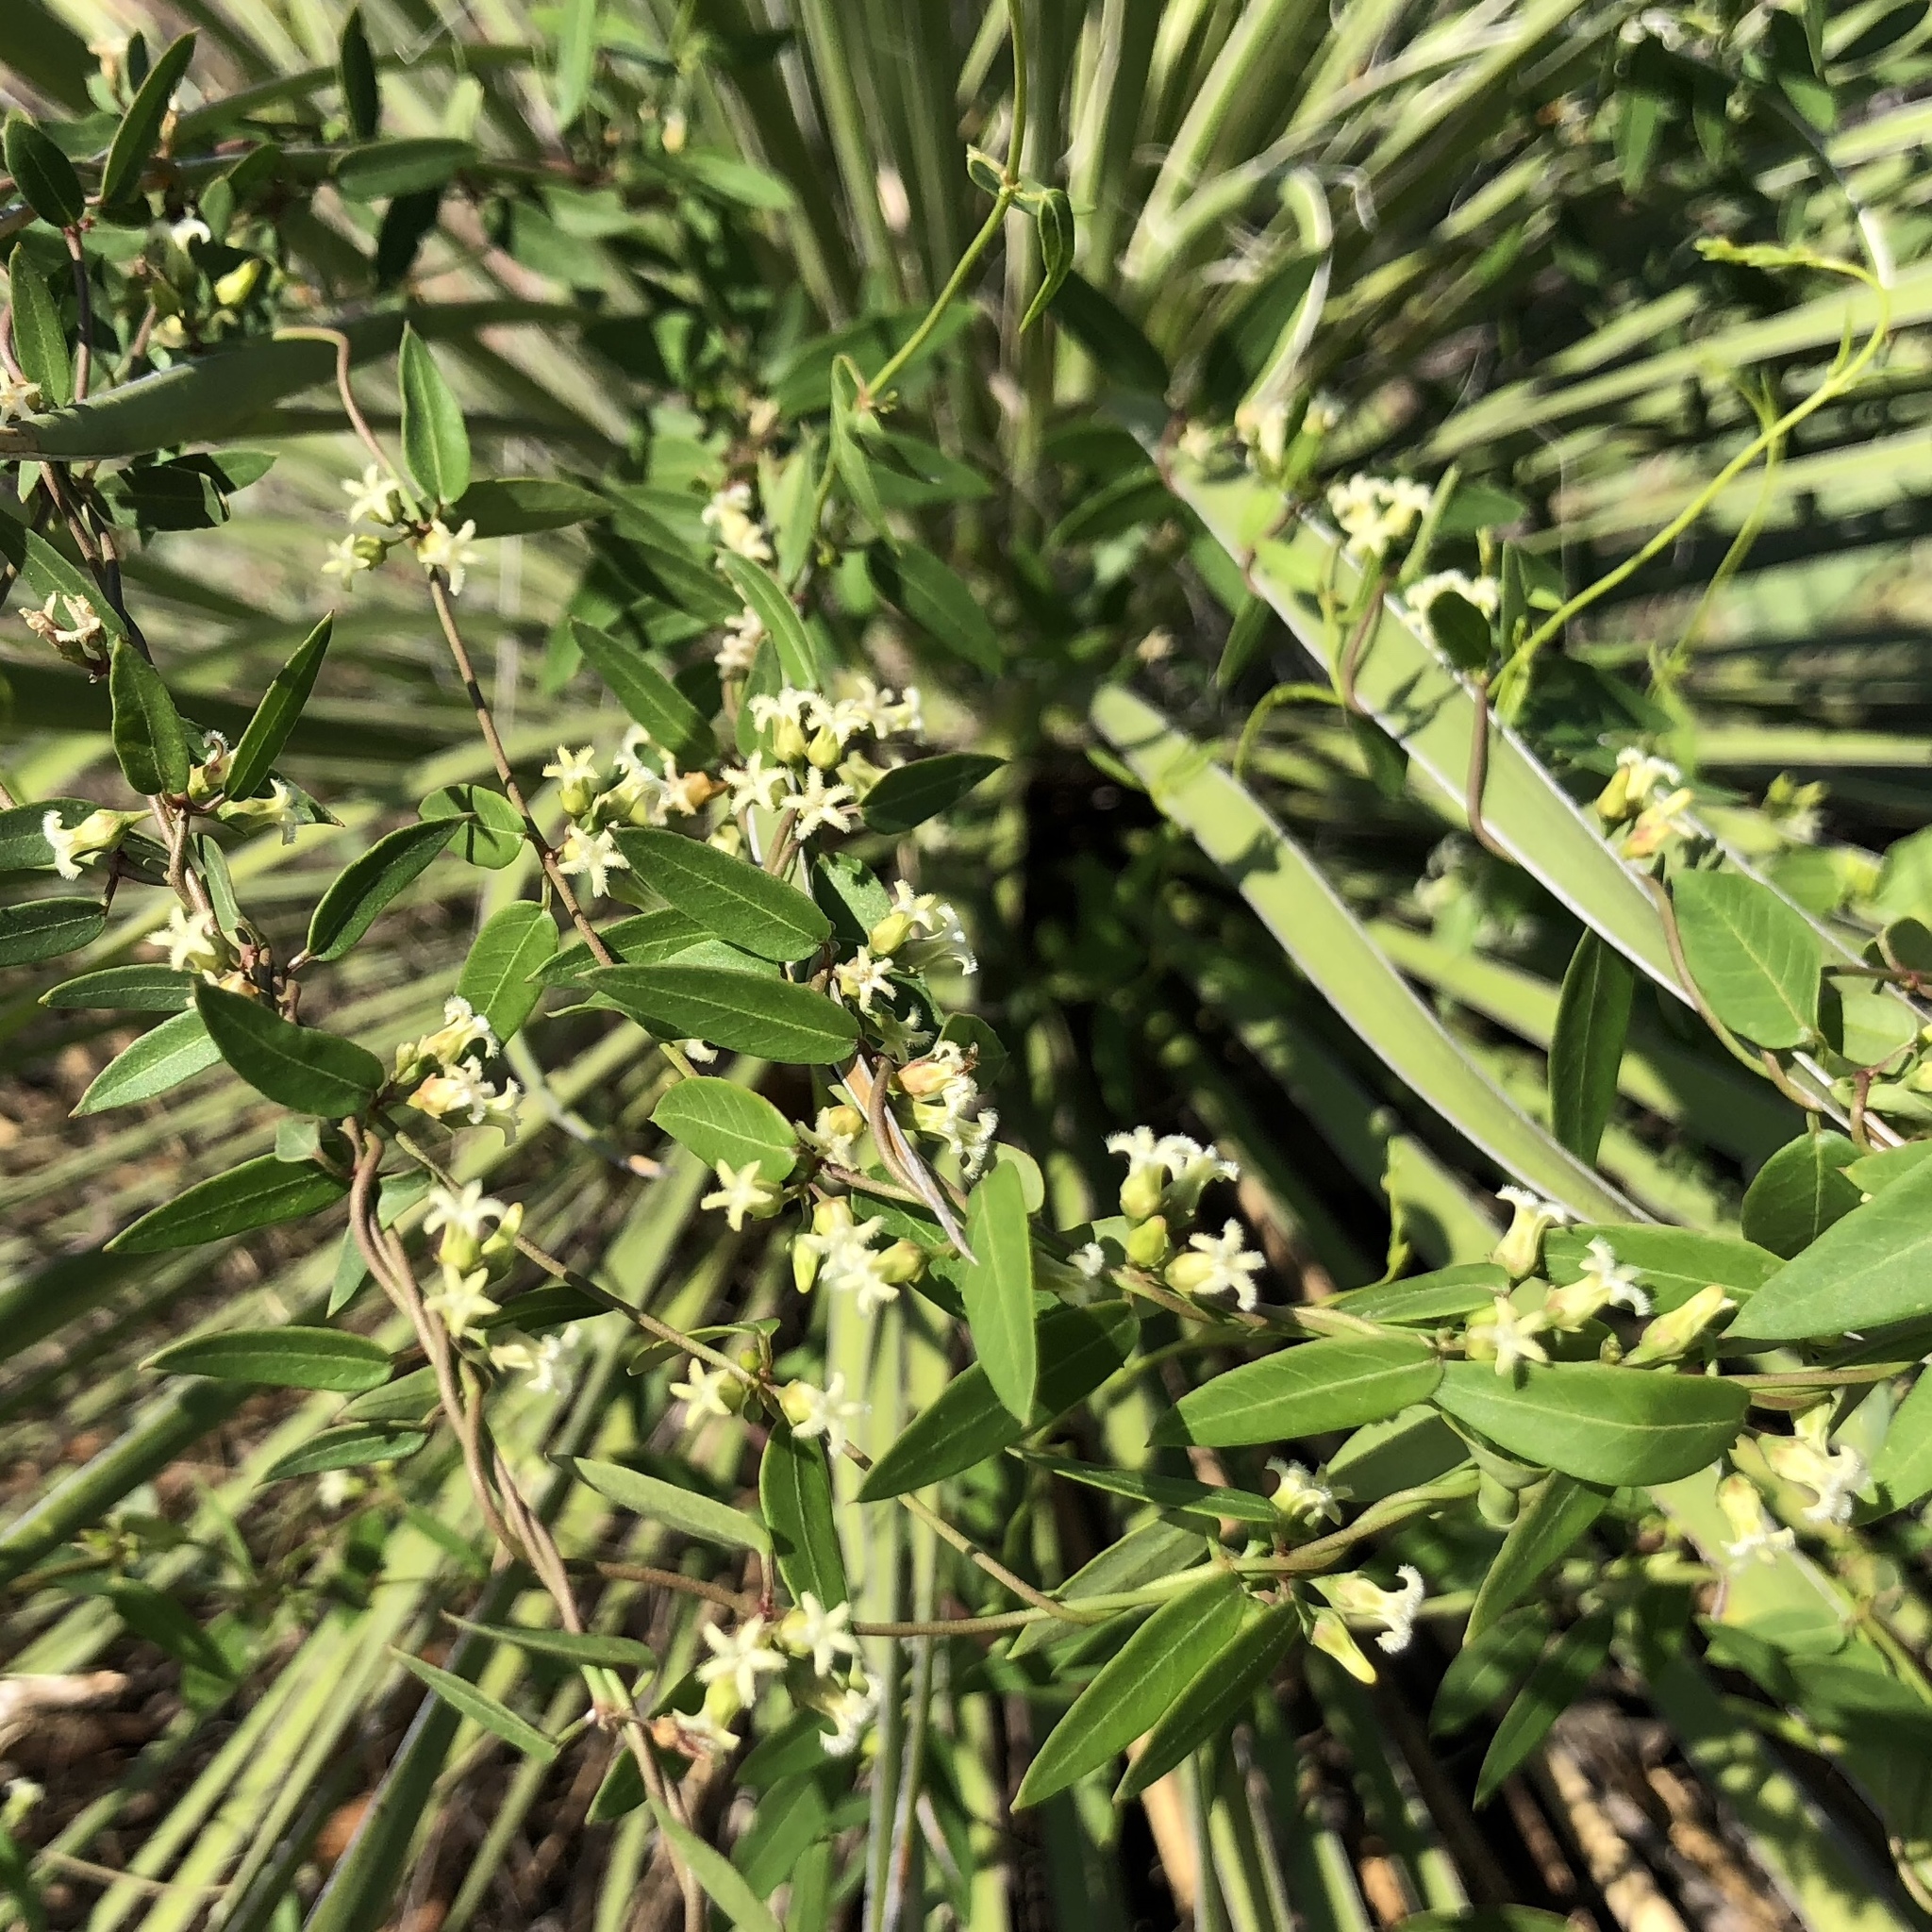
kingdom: Plantae
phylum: Tracheophyta
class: Magnoliopsida
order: Gentianales
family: Apocynaceae
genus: Metastelma
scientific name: Metastelma barbigerum
